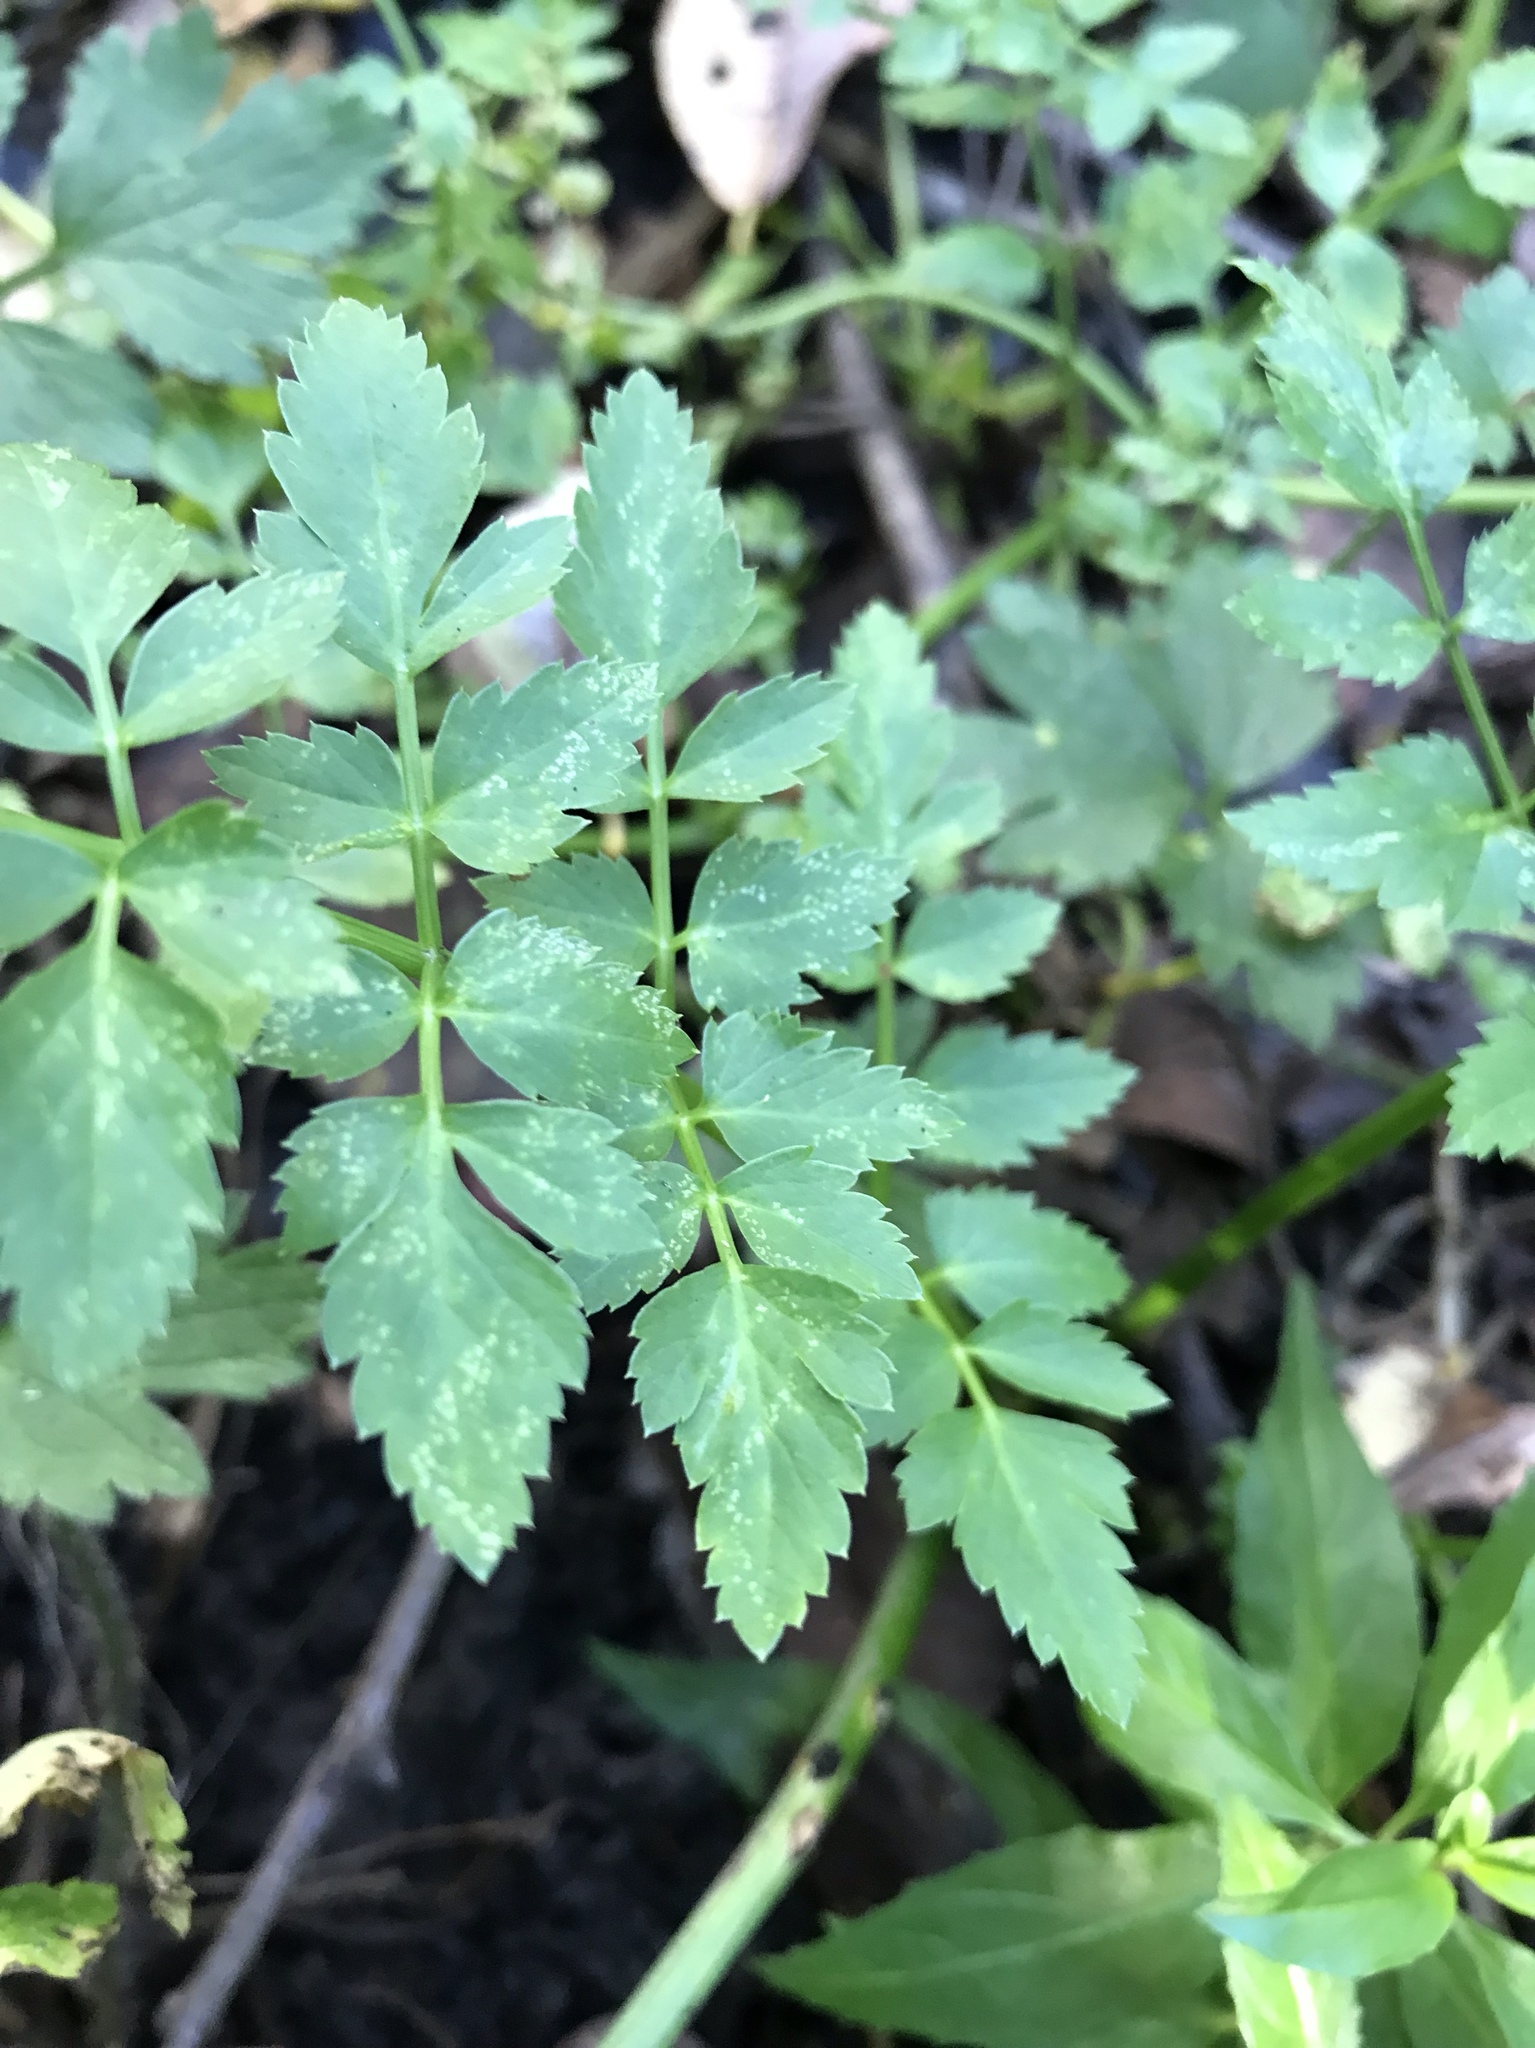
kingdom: Plantae
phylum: Tracheophyta
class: Magnoliopsida
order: Apiales
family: Apiaceae
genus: Oenanthe
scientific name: Oenanthe sarmentosa
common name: American water-parsley
